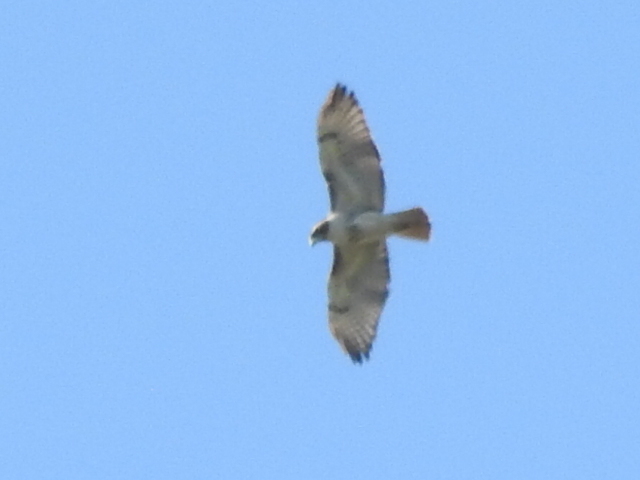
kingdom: Animalia
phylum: Chordata
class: Aves
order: Accipitriformes
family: Accipitridae
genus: Buteo
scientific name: Buteo jamaicensis
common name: Red-tailed hawk
